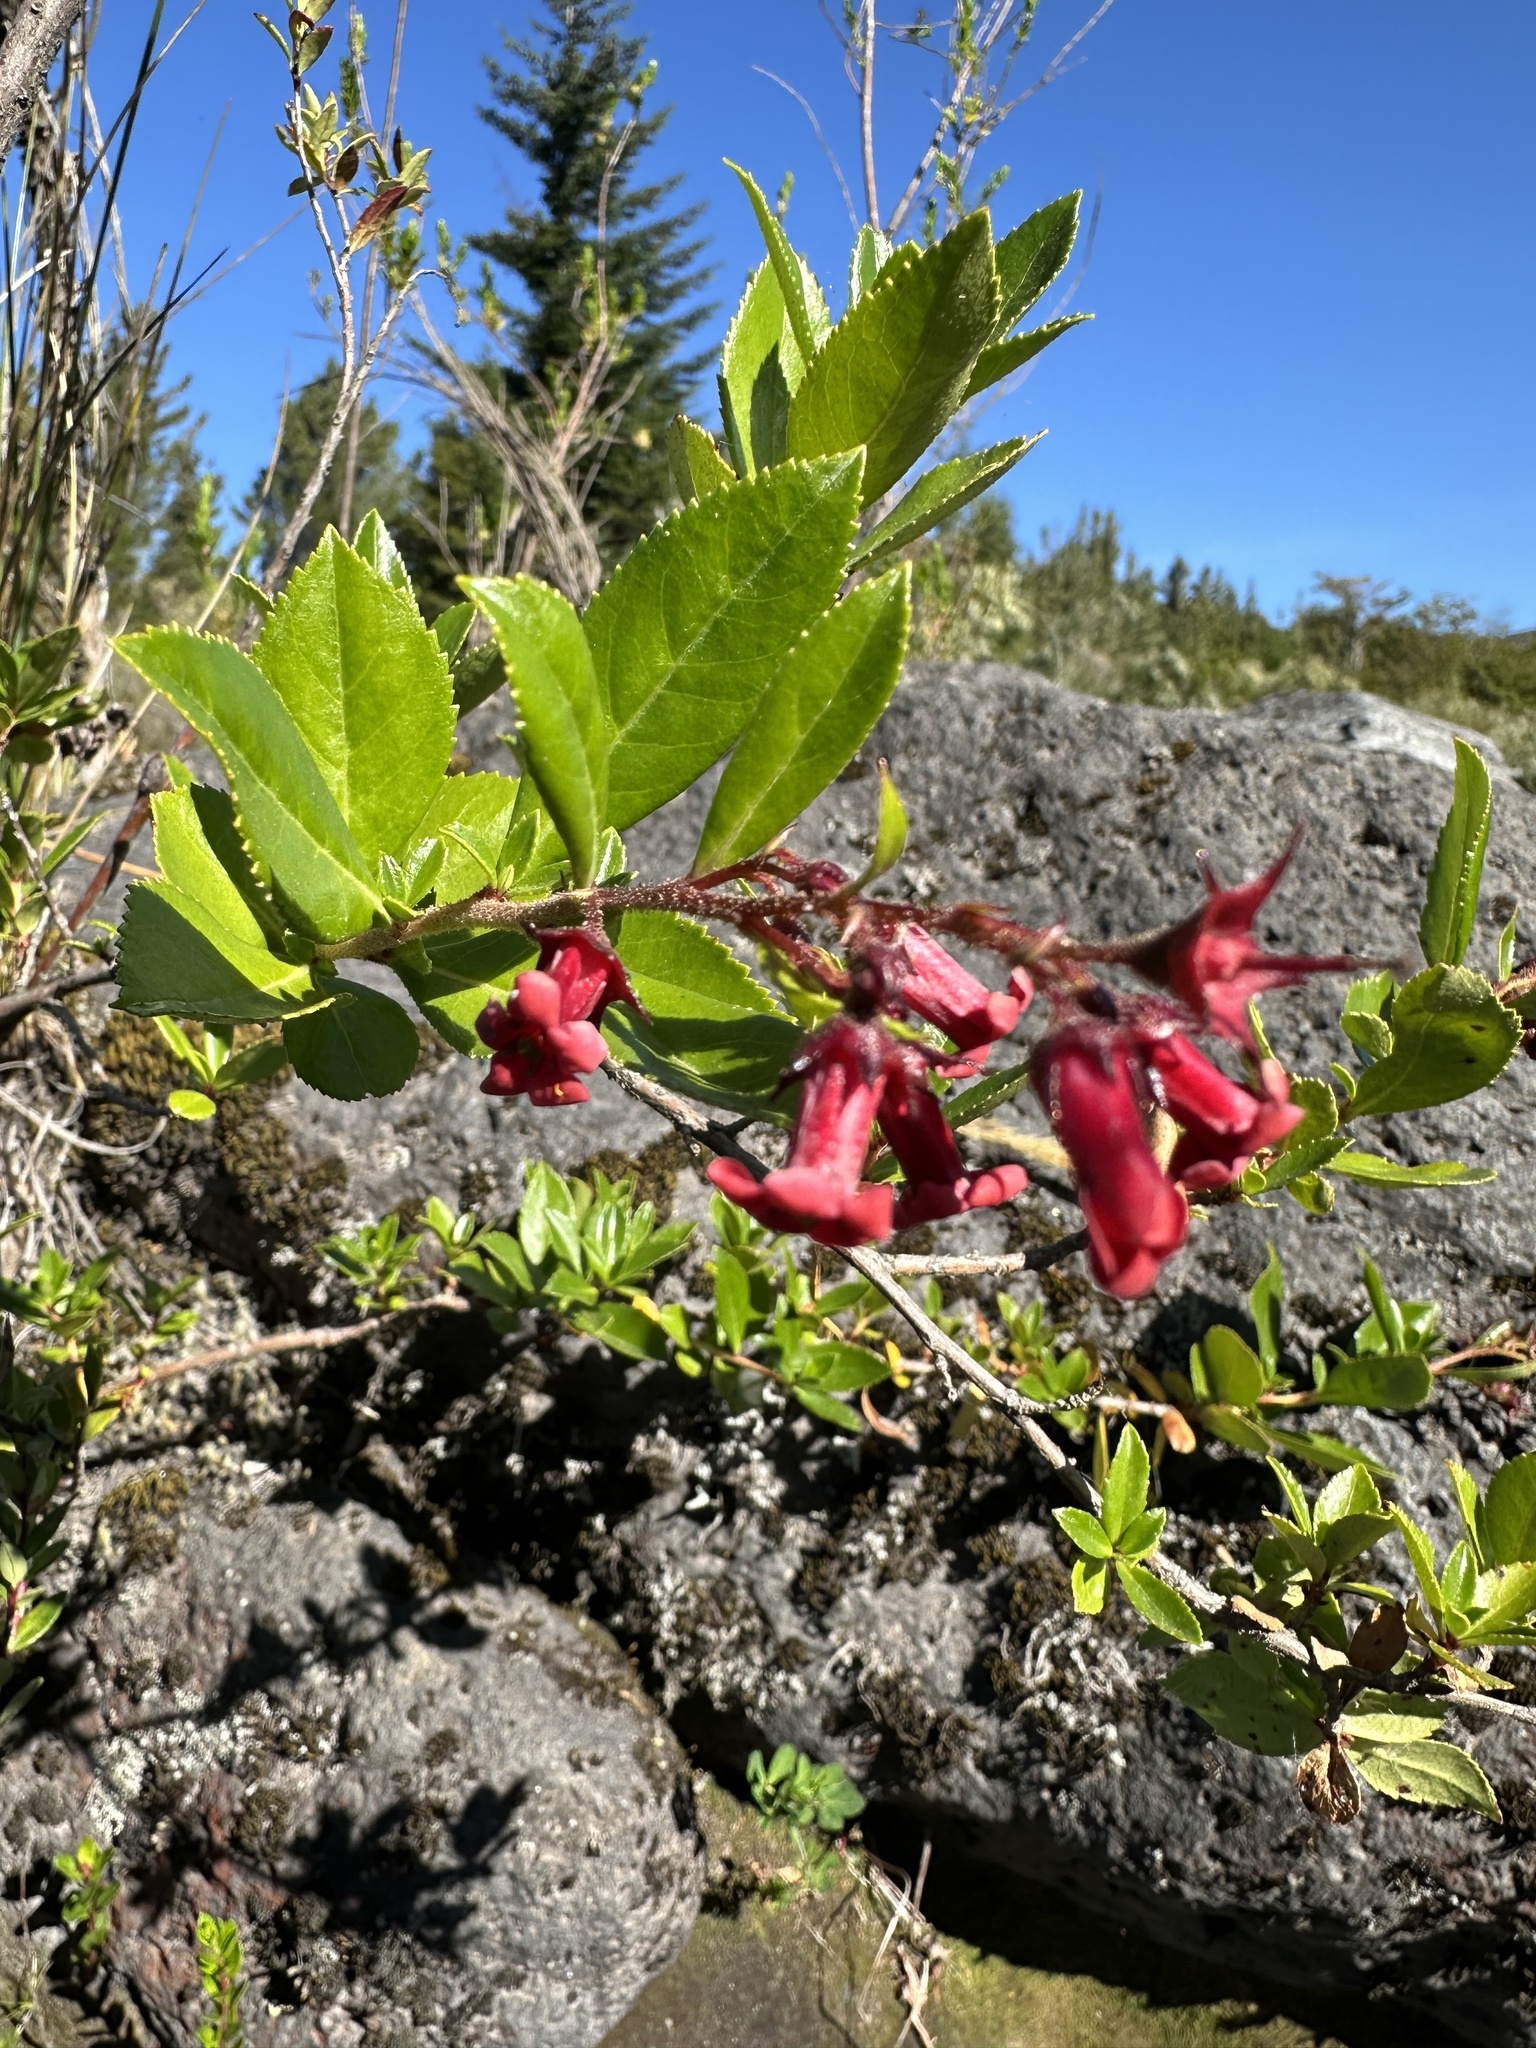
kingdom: Plantae
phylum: Tracheophyta
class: Magnoliopsida
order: Escalloniales
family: Escalloniaceae
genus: Escallonia
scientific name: Escallonia rubra
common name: Redclaws
